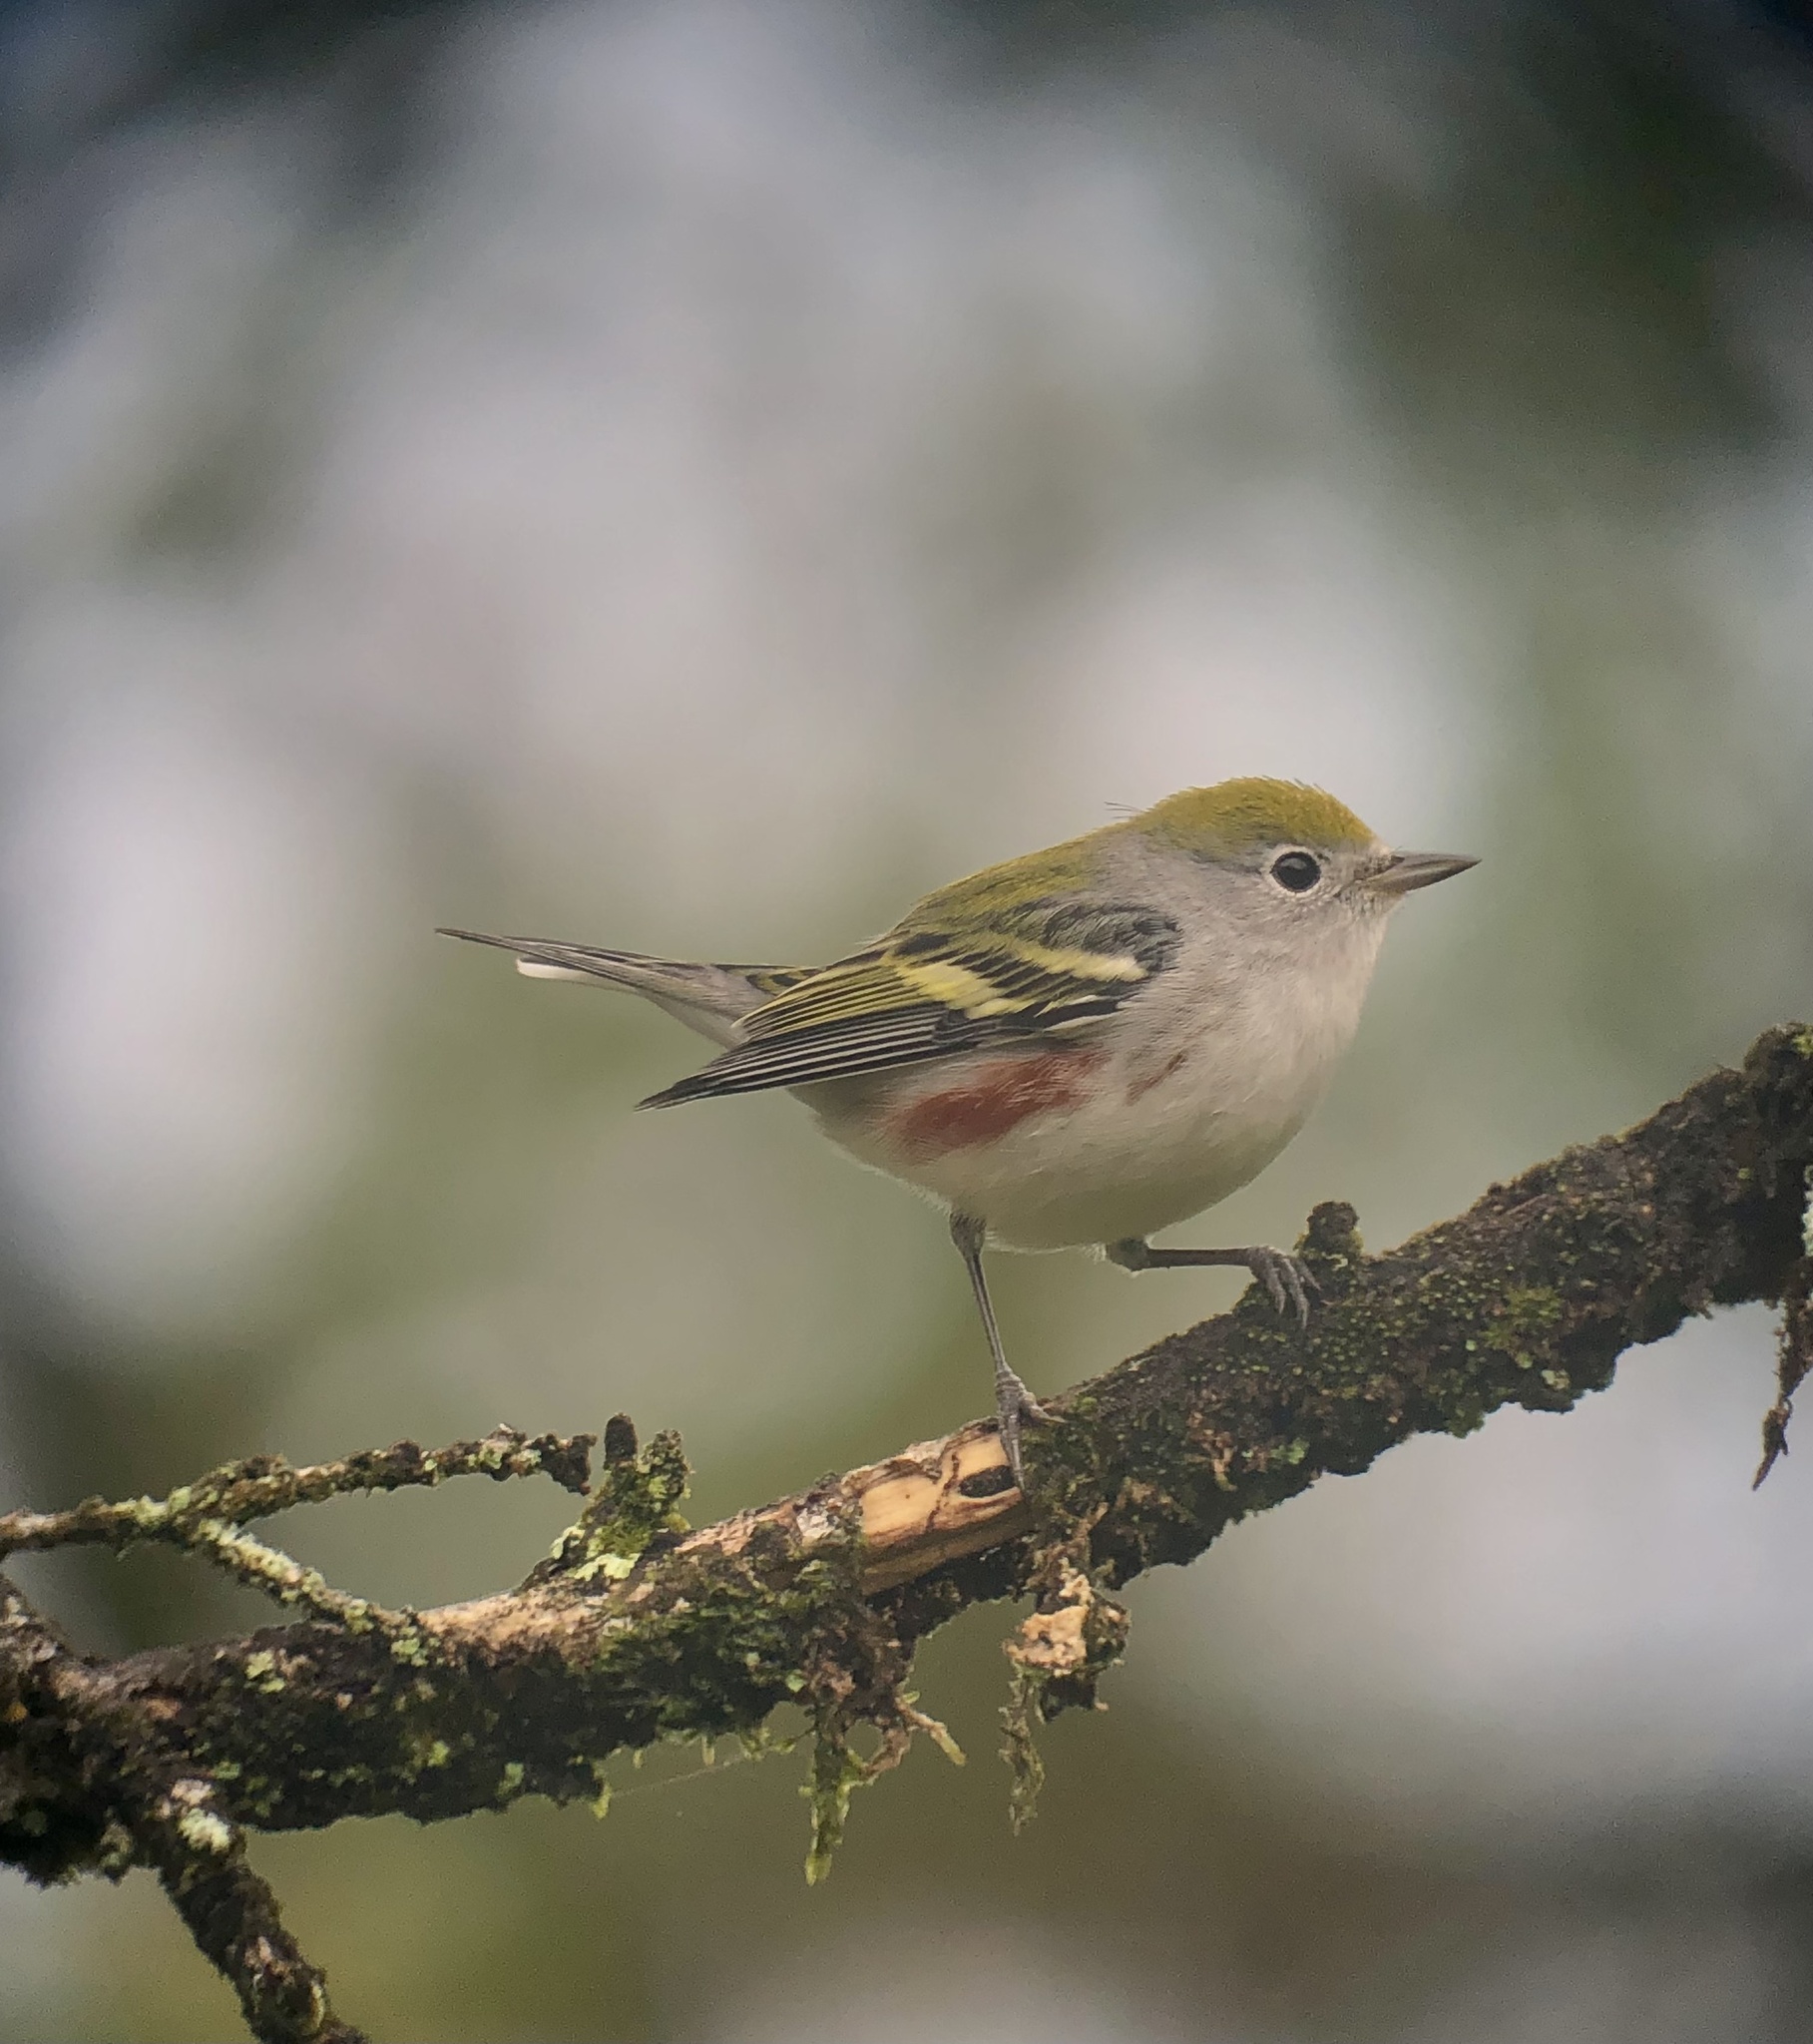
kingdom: Animalia
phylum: Chordata
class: Aves
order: Passeriformes
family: Parulidae
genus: Setophaga
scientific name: Setophaga pensylvanica
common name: Chestnut-sided warbler
